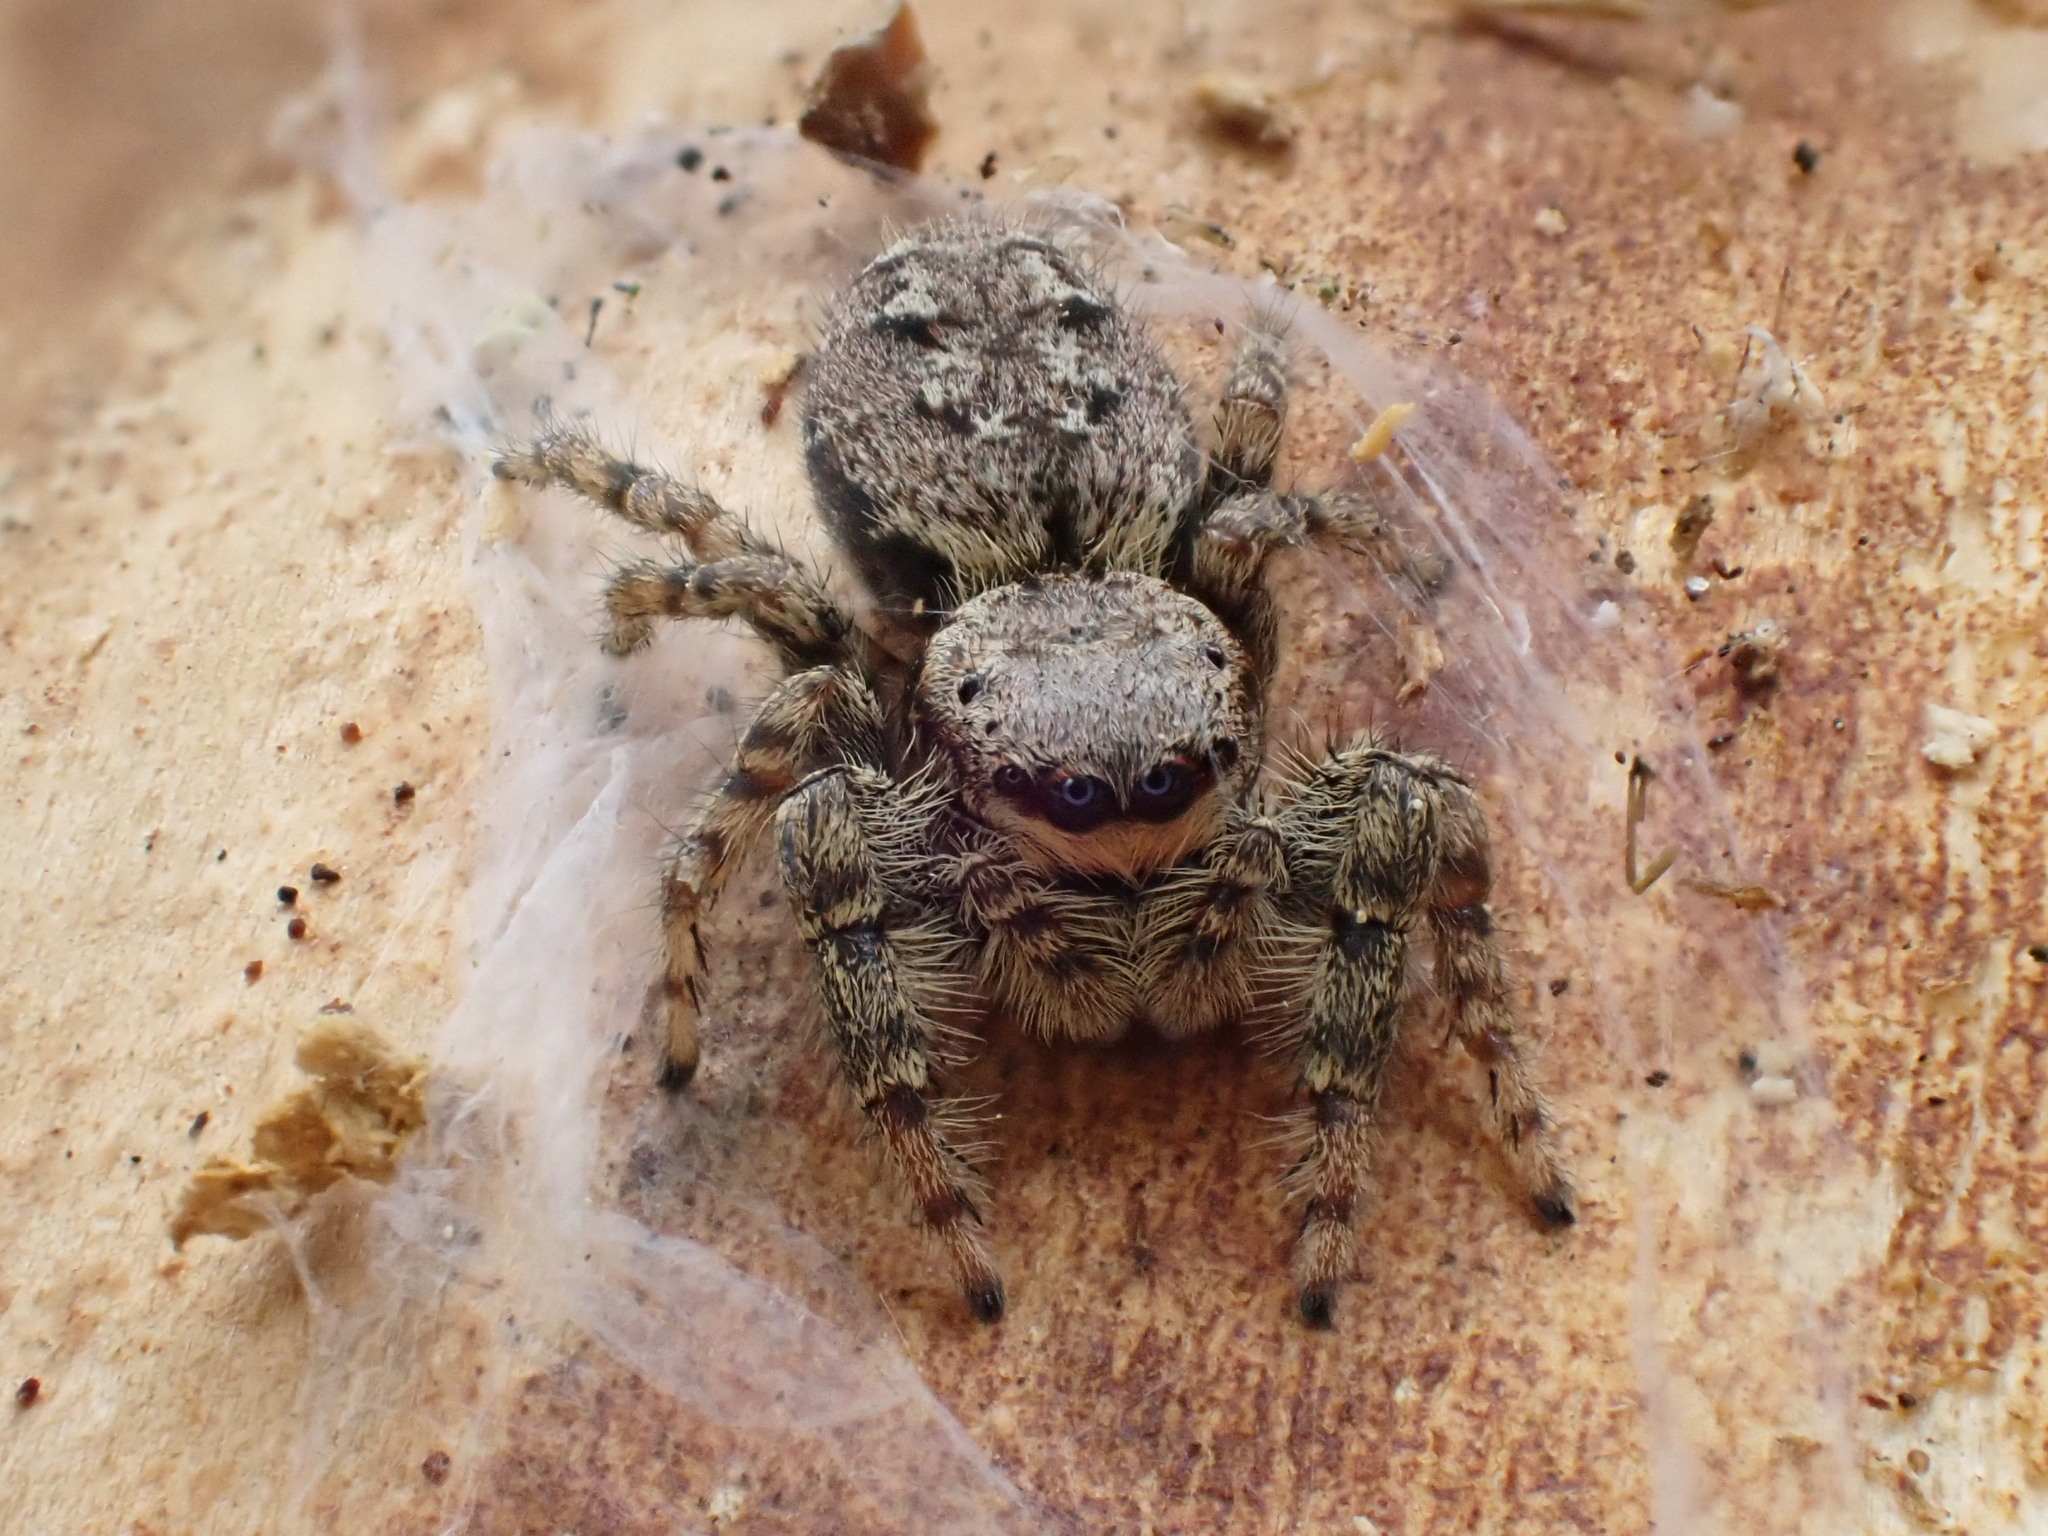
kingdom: Animalia
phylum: Arthropoda
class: Arachnida
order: Araneae
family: Salticidae
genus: Marpissa
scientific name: Marpissa muscosa
